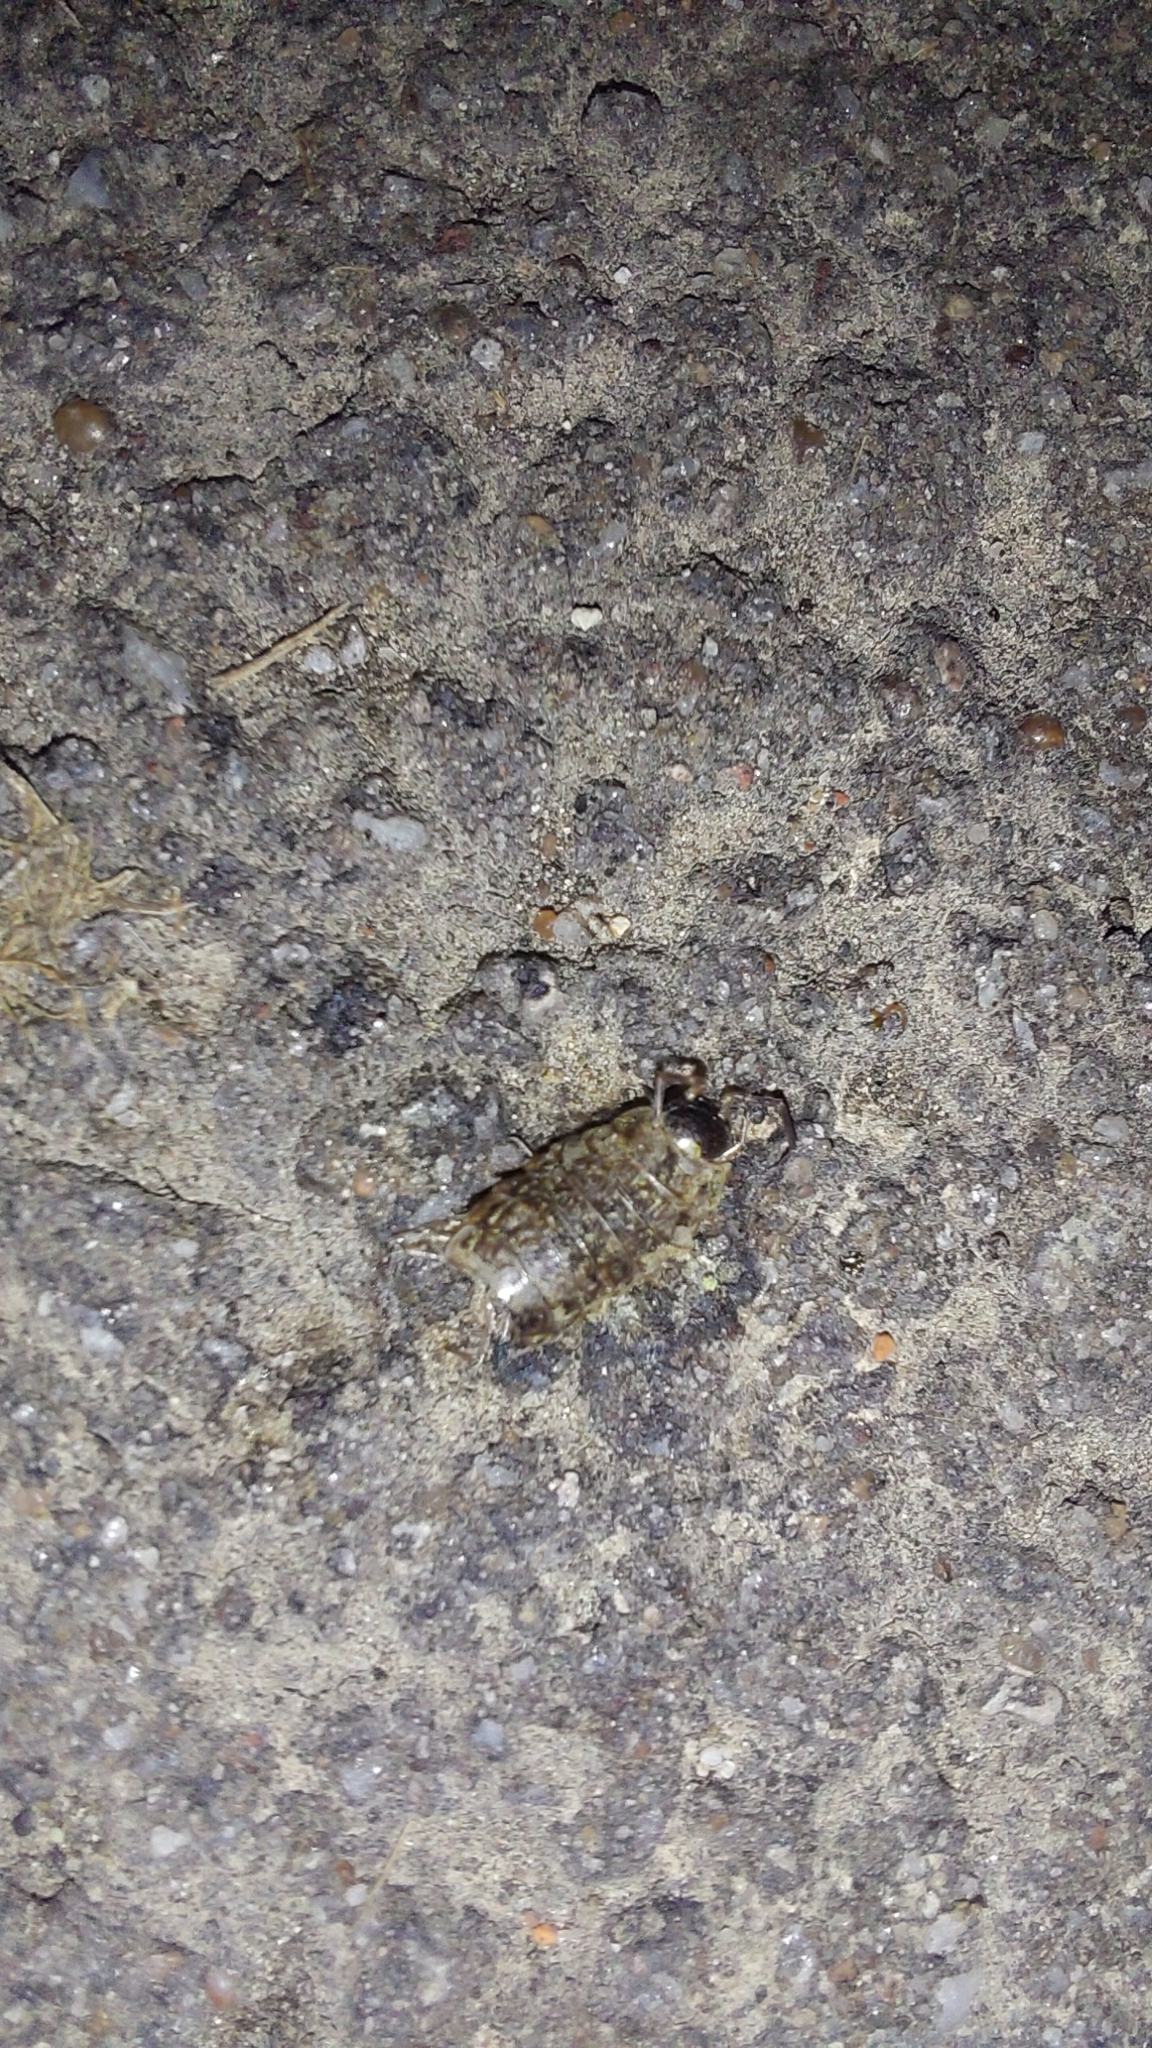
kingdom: Animalia
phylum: Arthropoda
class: Malacostraca
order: Isopoda
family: Philosciidae
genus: Philoscia
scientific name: Philoscia muscorum
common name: Common striped woodlouse
